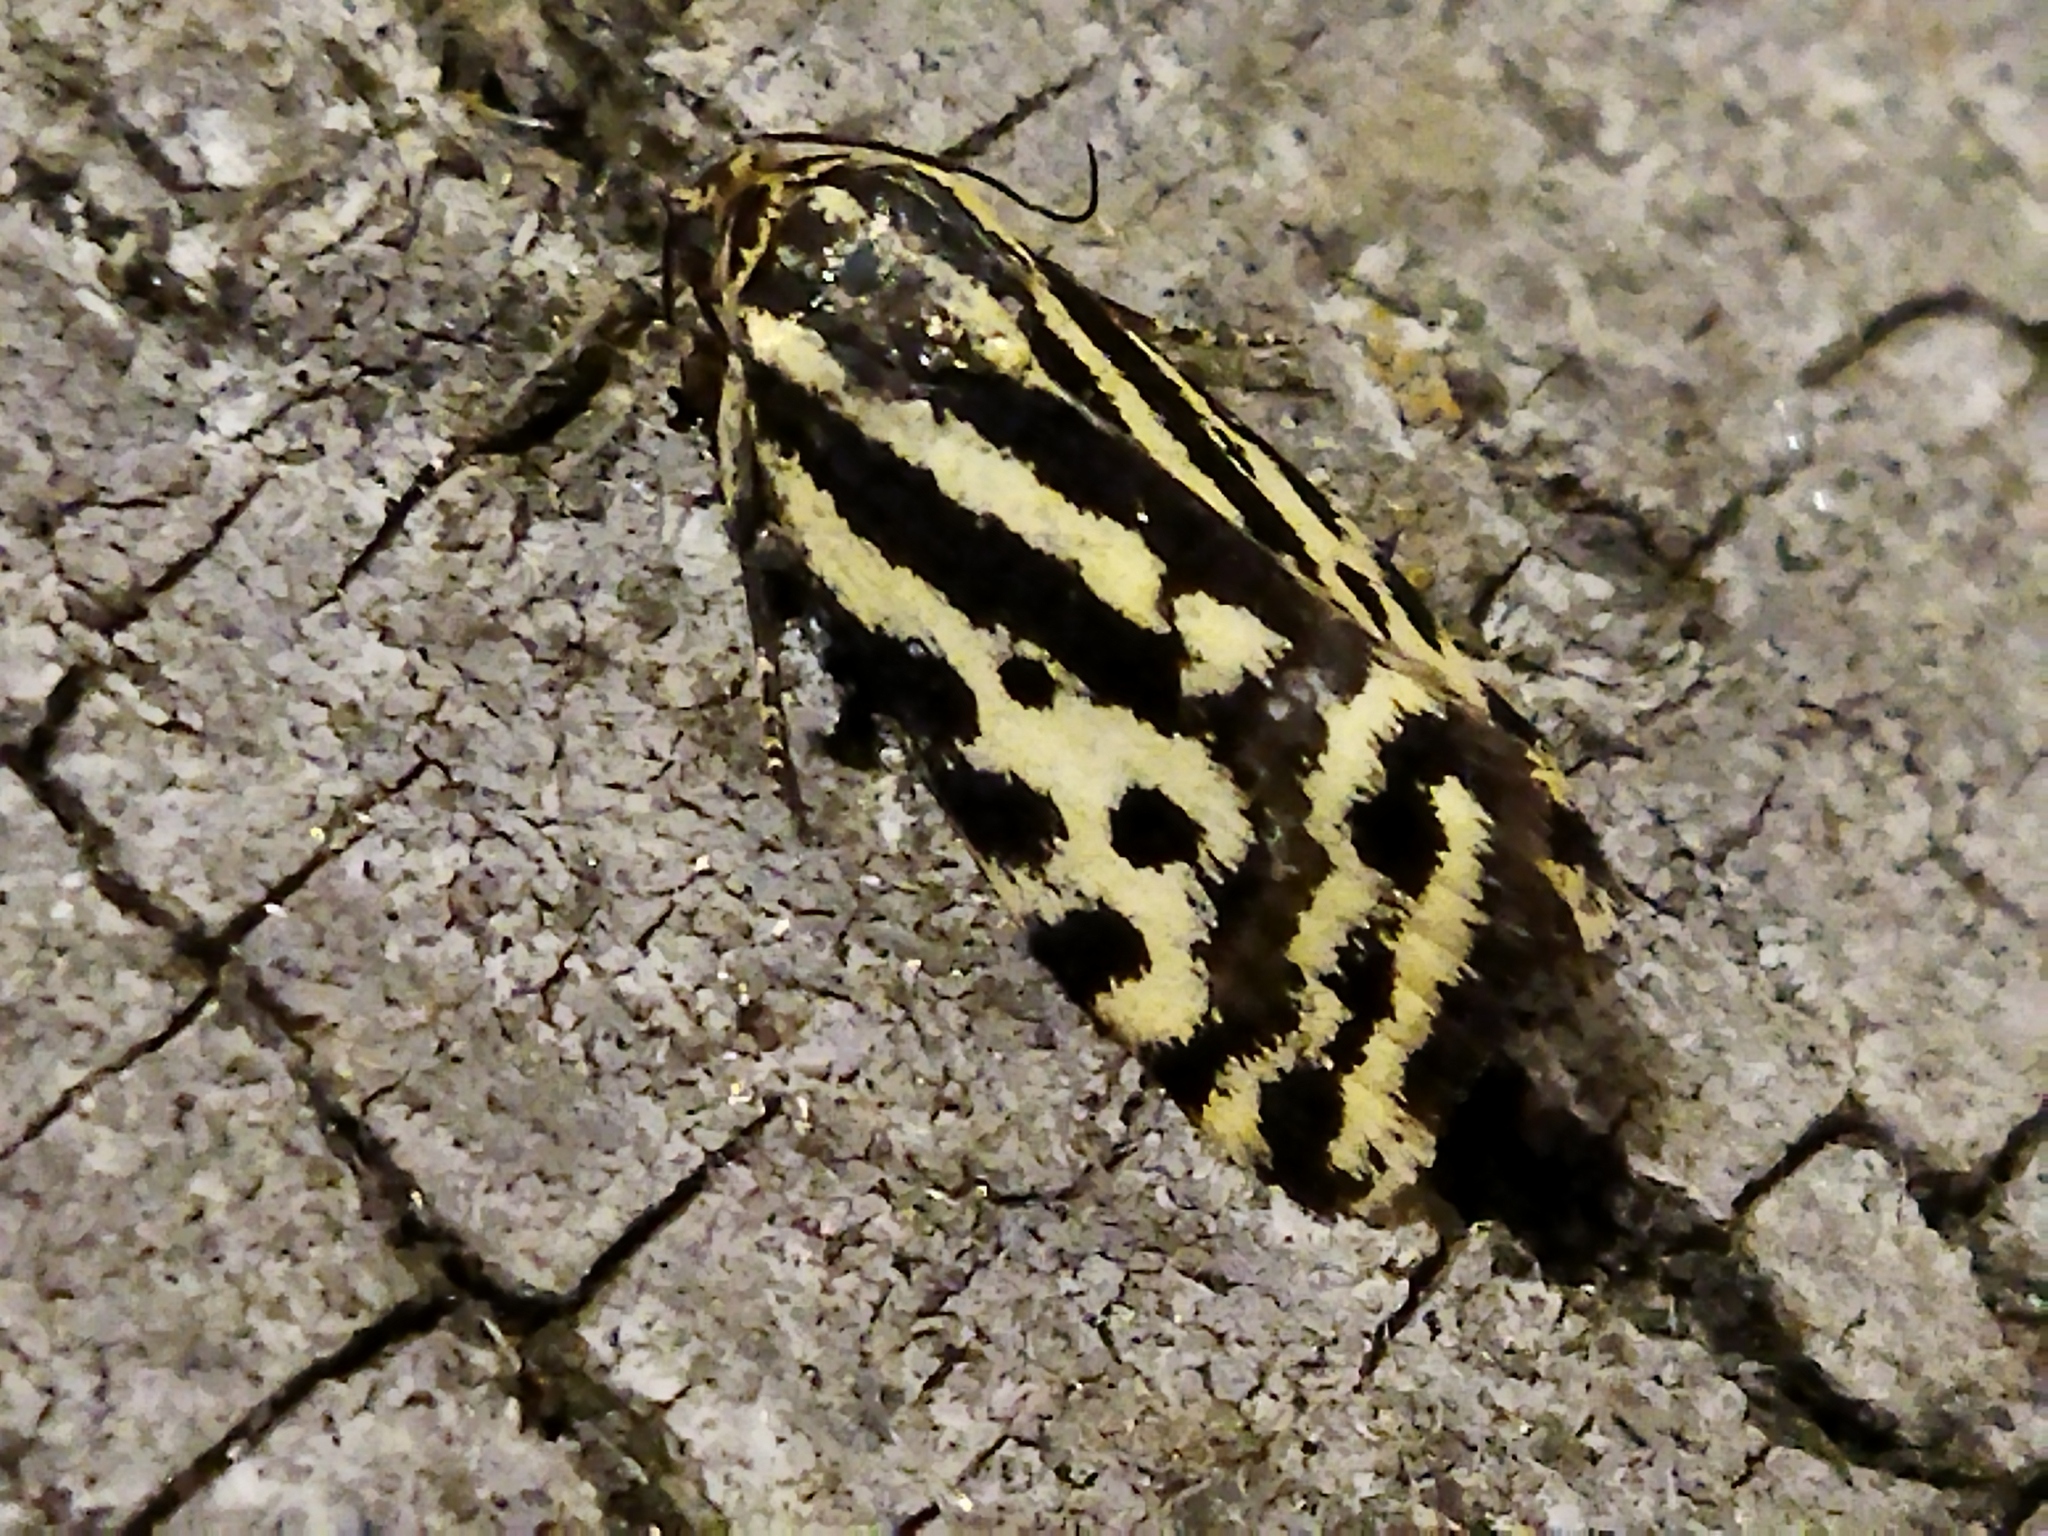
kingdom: Animalia
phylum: Arthropoda
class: Insecta
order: Lepidoptera
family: Noctuidae
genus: Acontia
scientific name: Acontia trabealis
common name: Spotted sulphur
